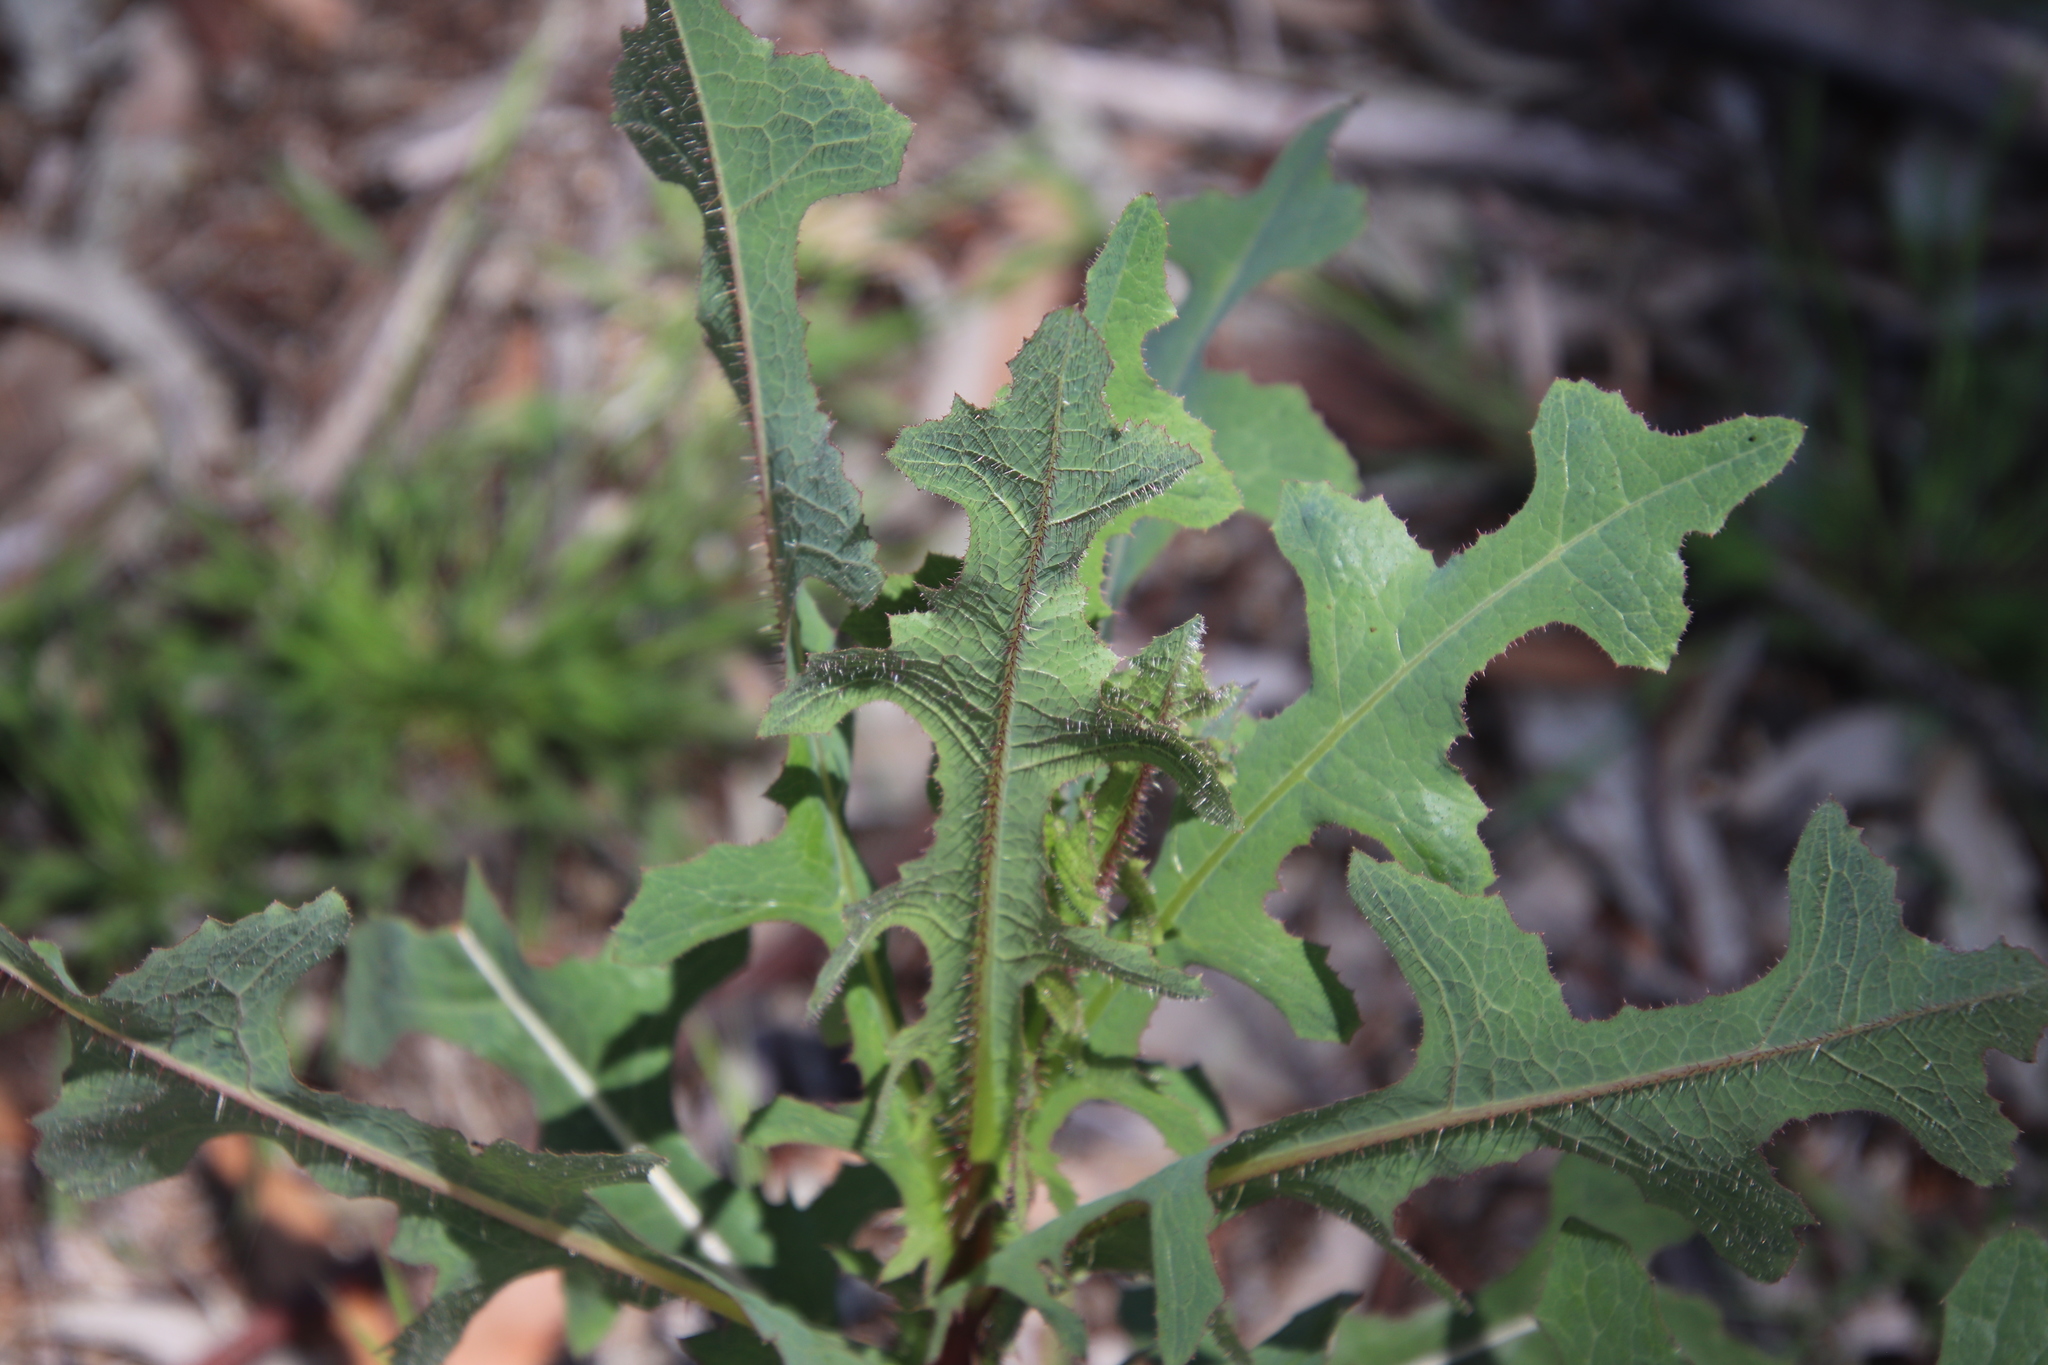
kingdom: Plantae
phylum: Tracheophyta
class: Magnoliopsida
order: Asterales
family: Asteraceae
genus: Lactuca
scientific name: Lactuca serriola
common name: Prickly lettuce
